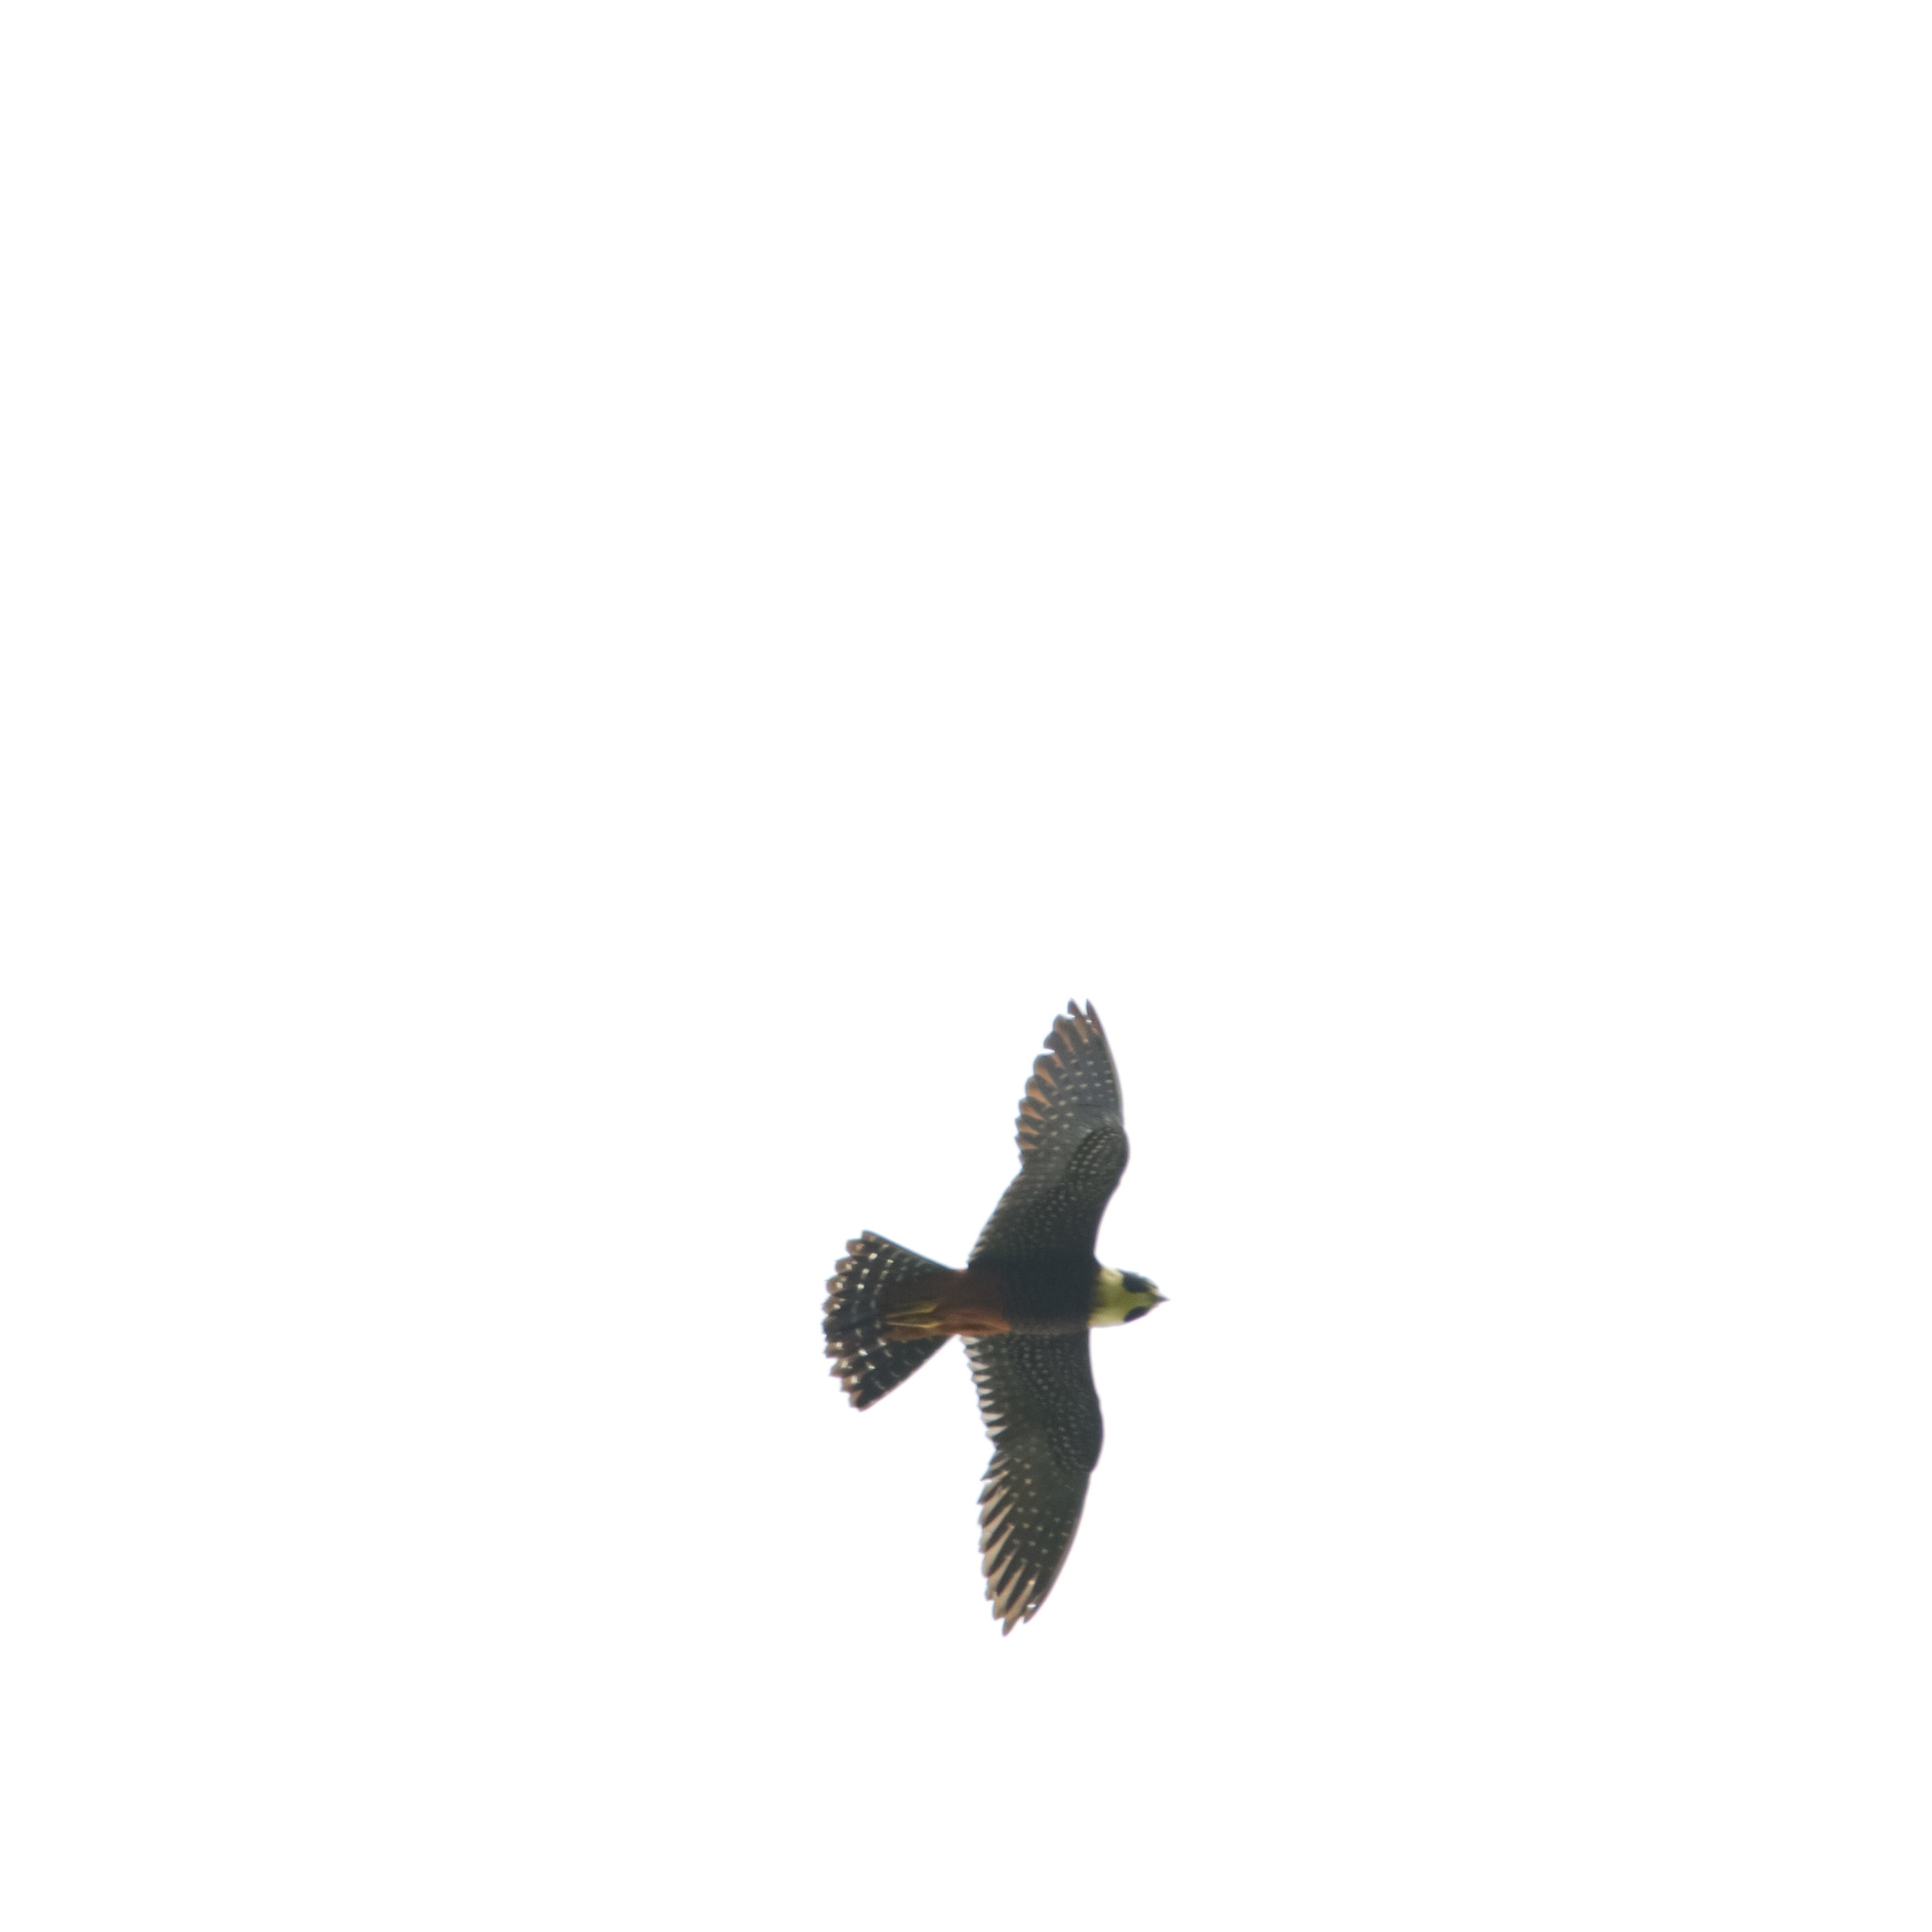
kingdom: Animalia
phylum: Chordata
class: Aves
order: Falconiformes
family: Falconidae
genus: Falco
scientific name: Falco rufigularis
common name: Bat falcon
